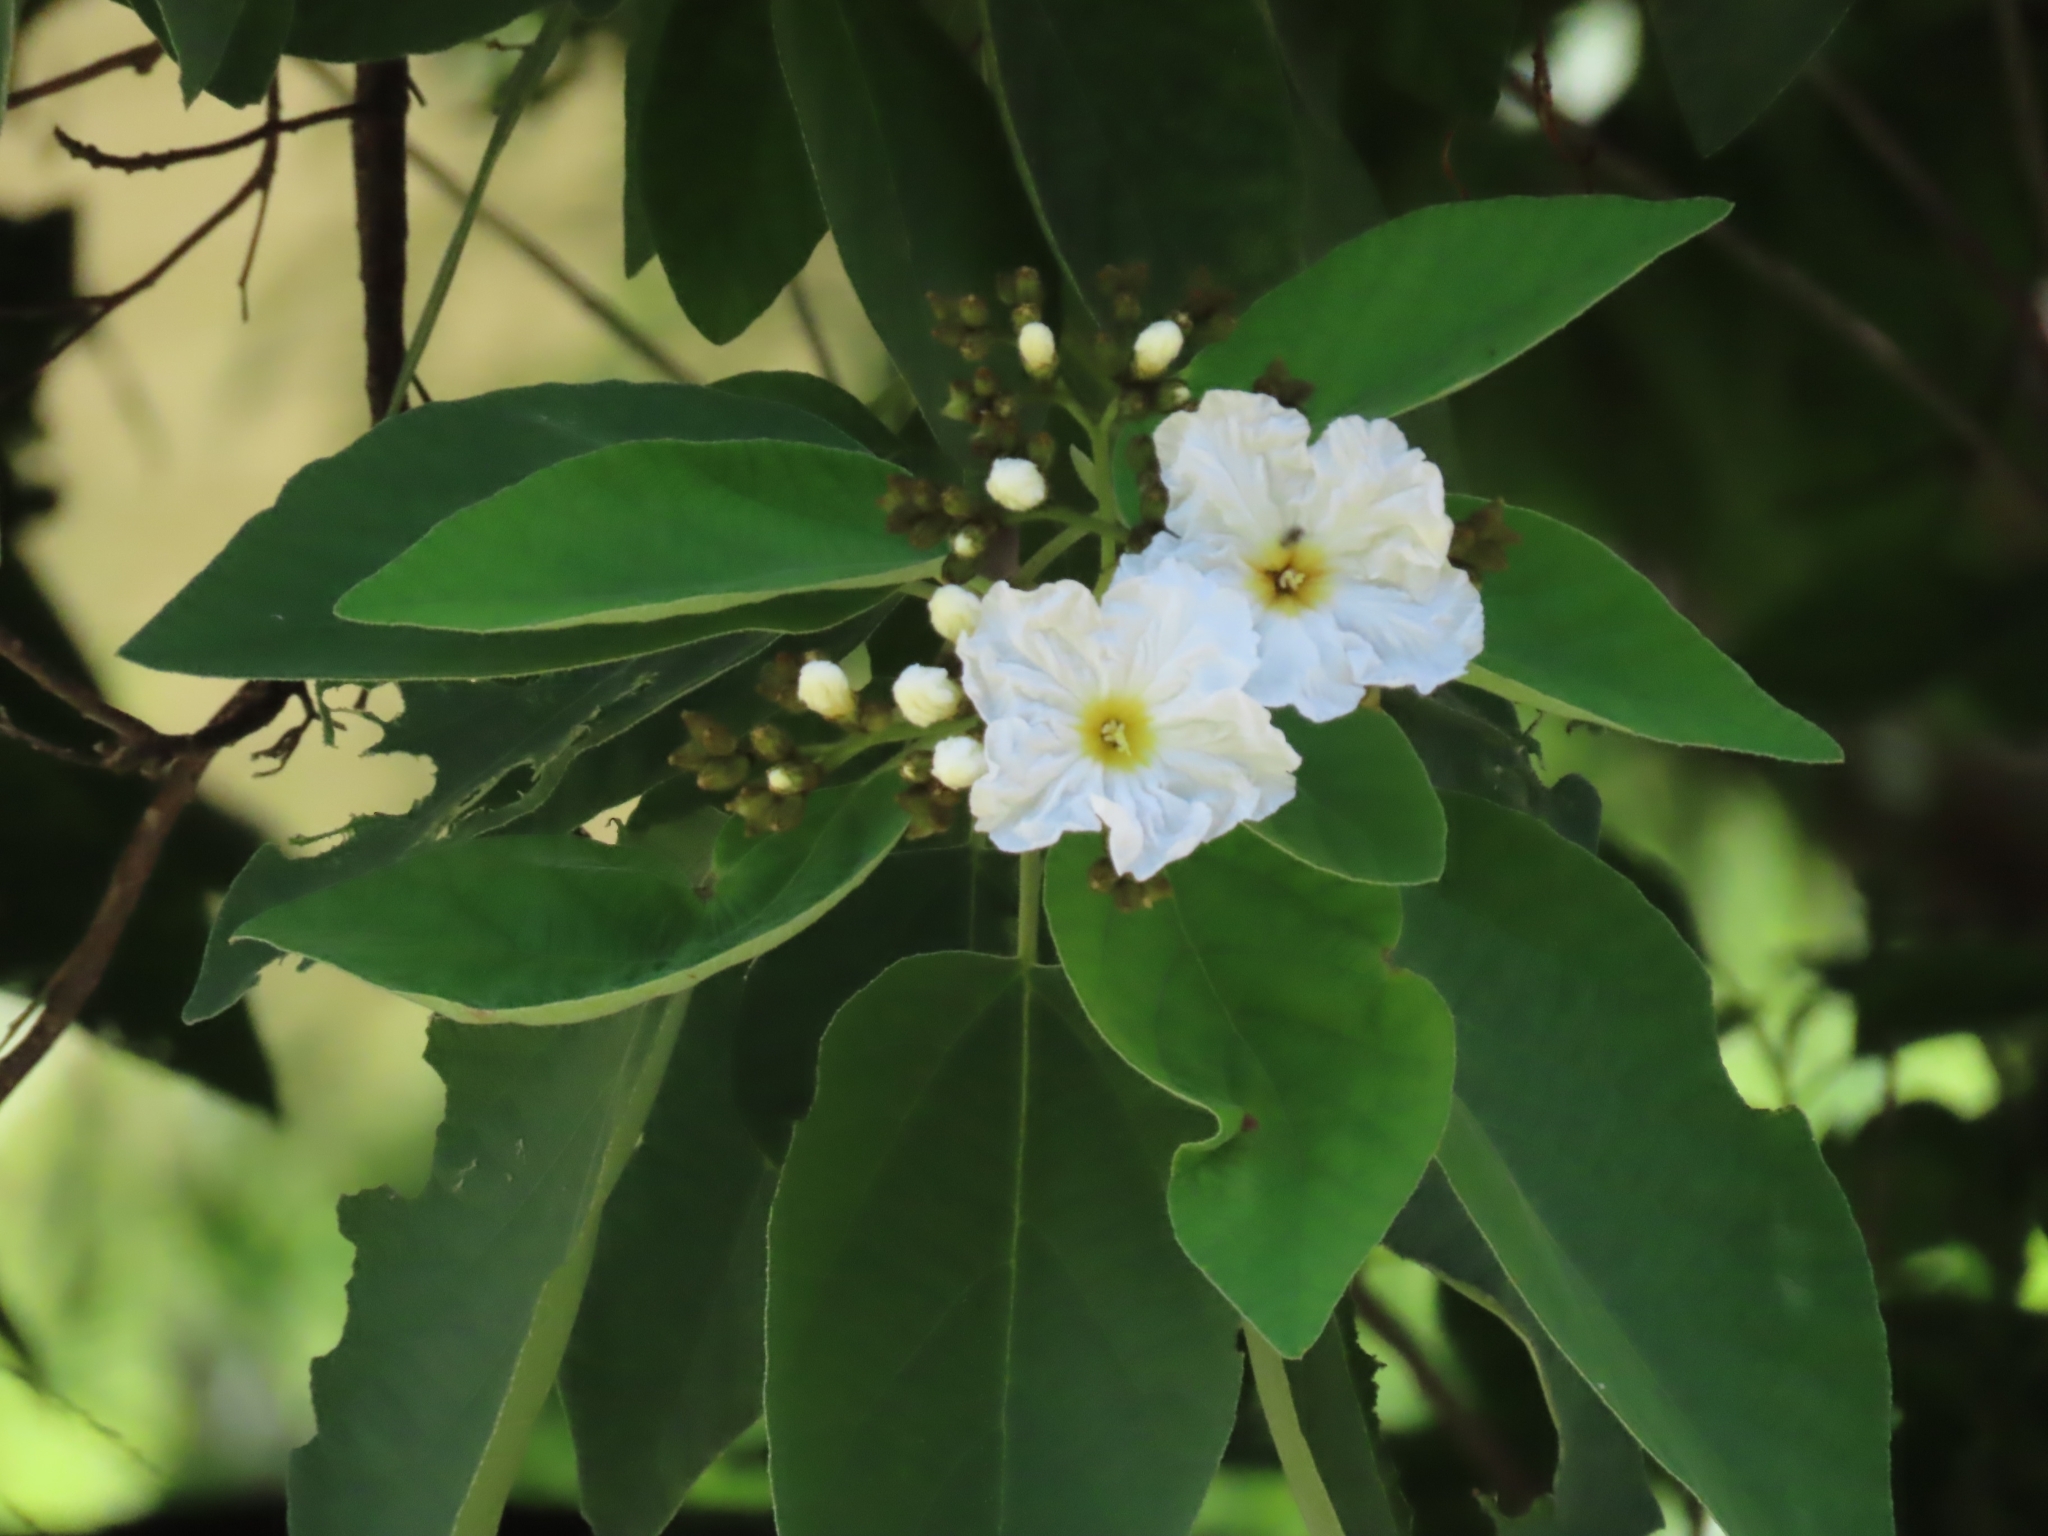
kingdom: Plantae
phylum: Tracheophyta
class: Magnoliopsida
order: Boraginales
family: Cordiaceae
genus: Cordia
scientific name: Cordia boissieri
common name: Mexican-olive
